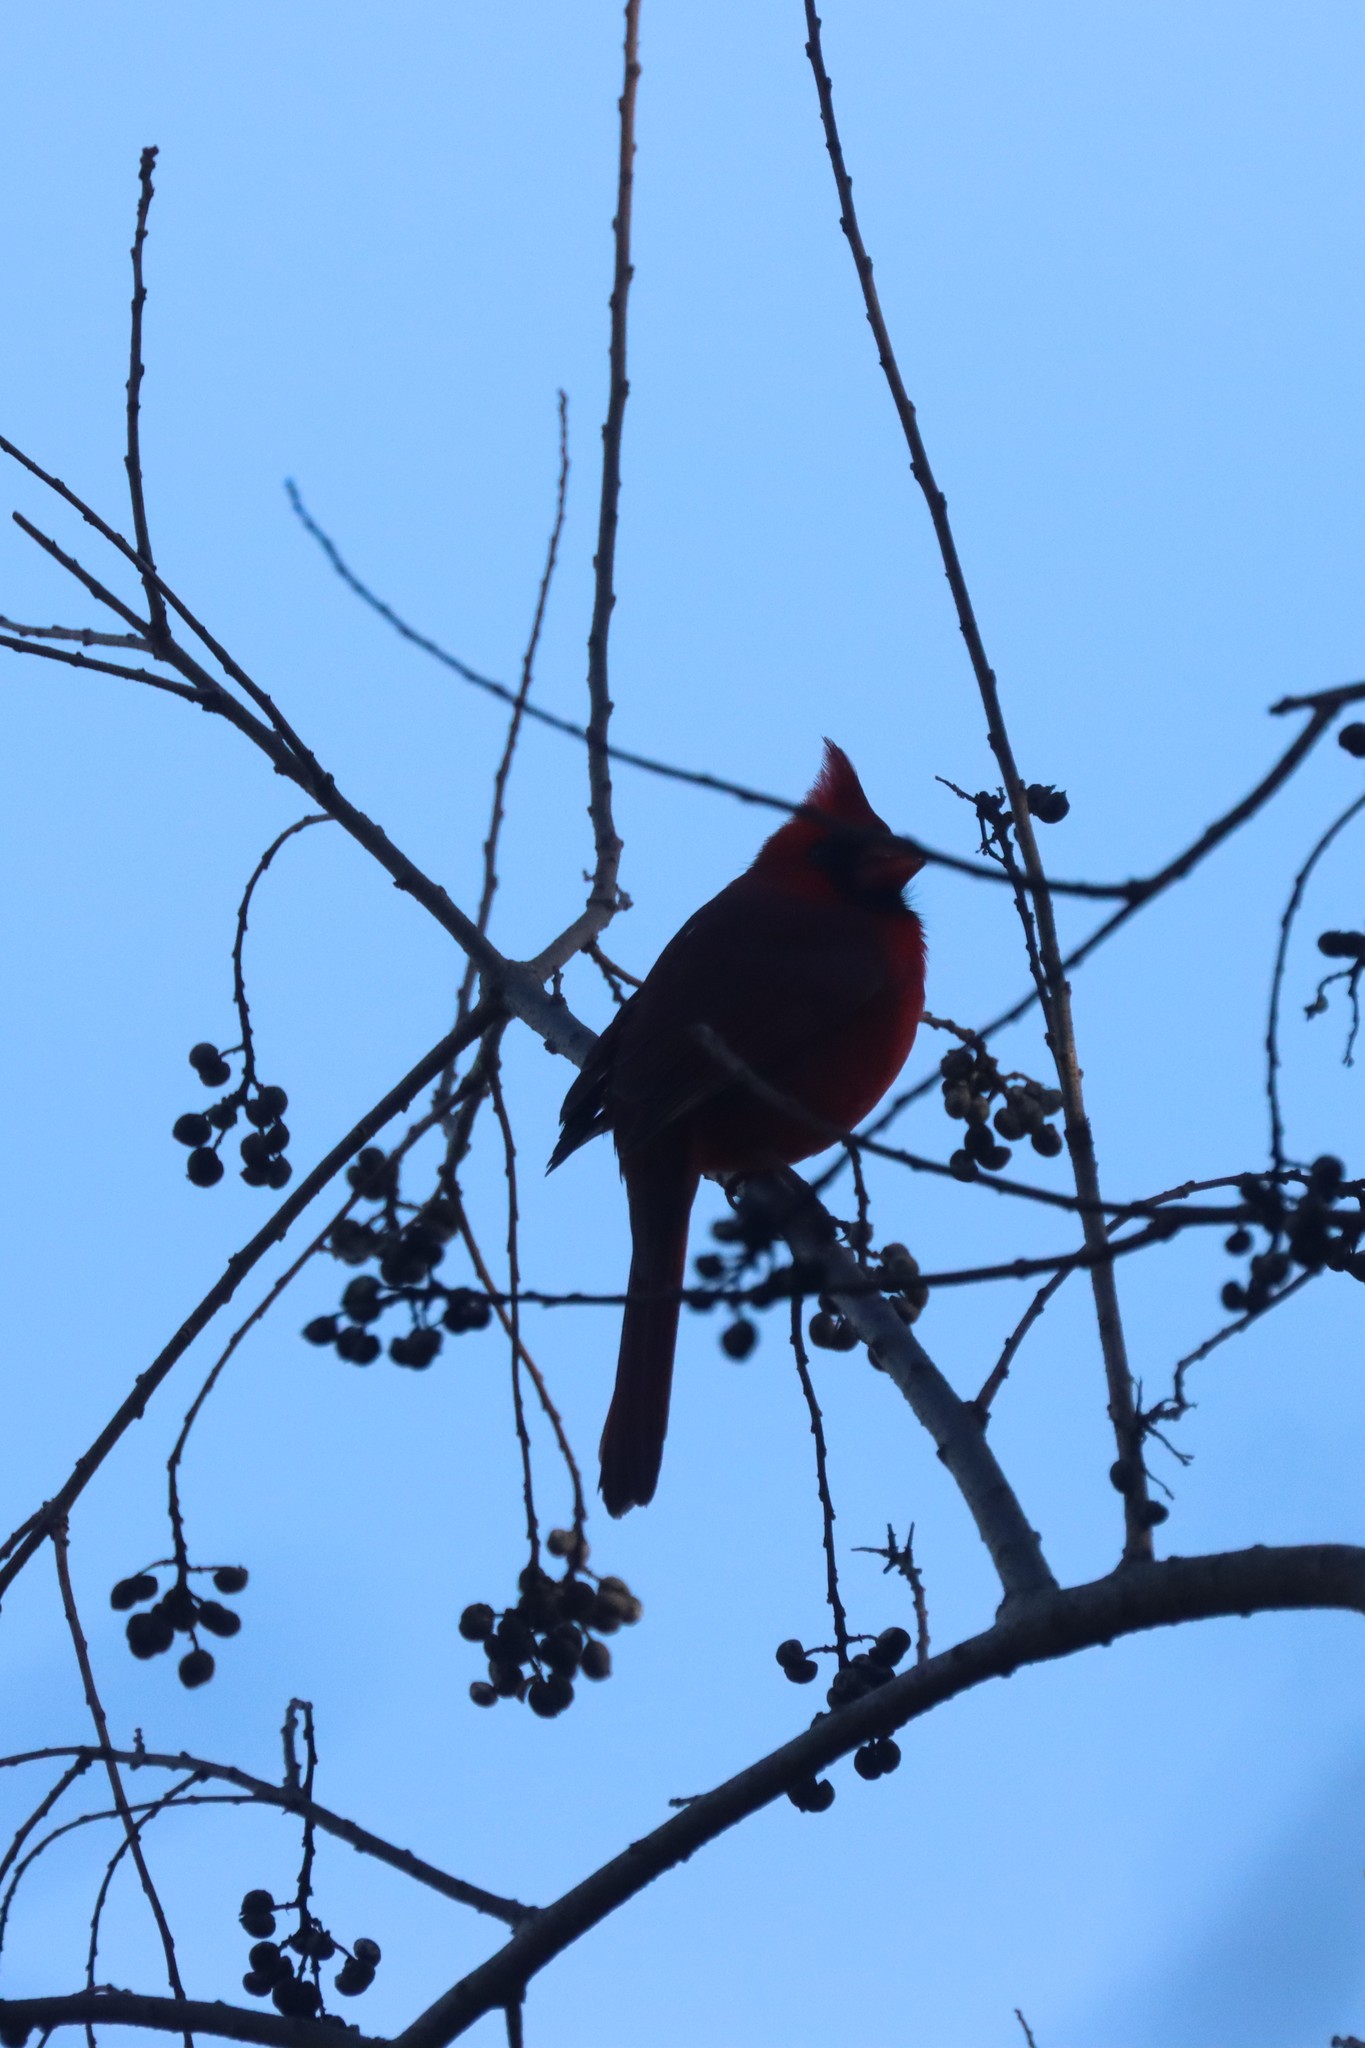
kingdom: Animalia
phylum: Chordata
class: Aves
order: Passeriformes
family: Cardinalidae
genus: Cardinalis
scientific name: Cardinalis cardinalis
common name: Northern cardinal
